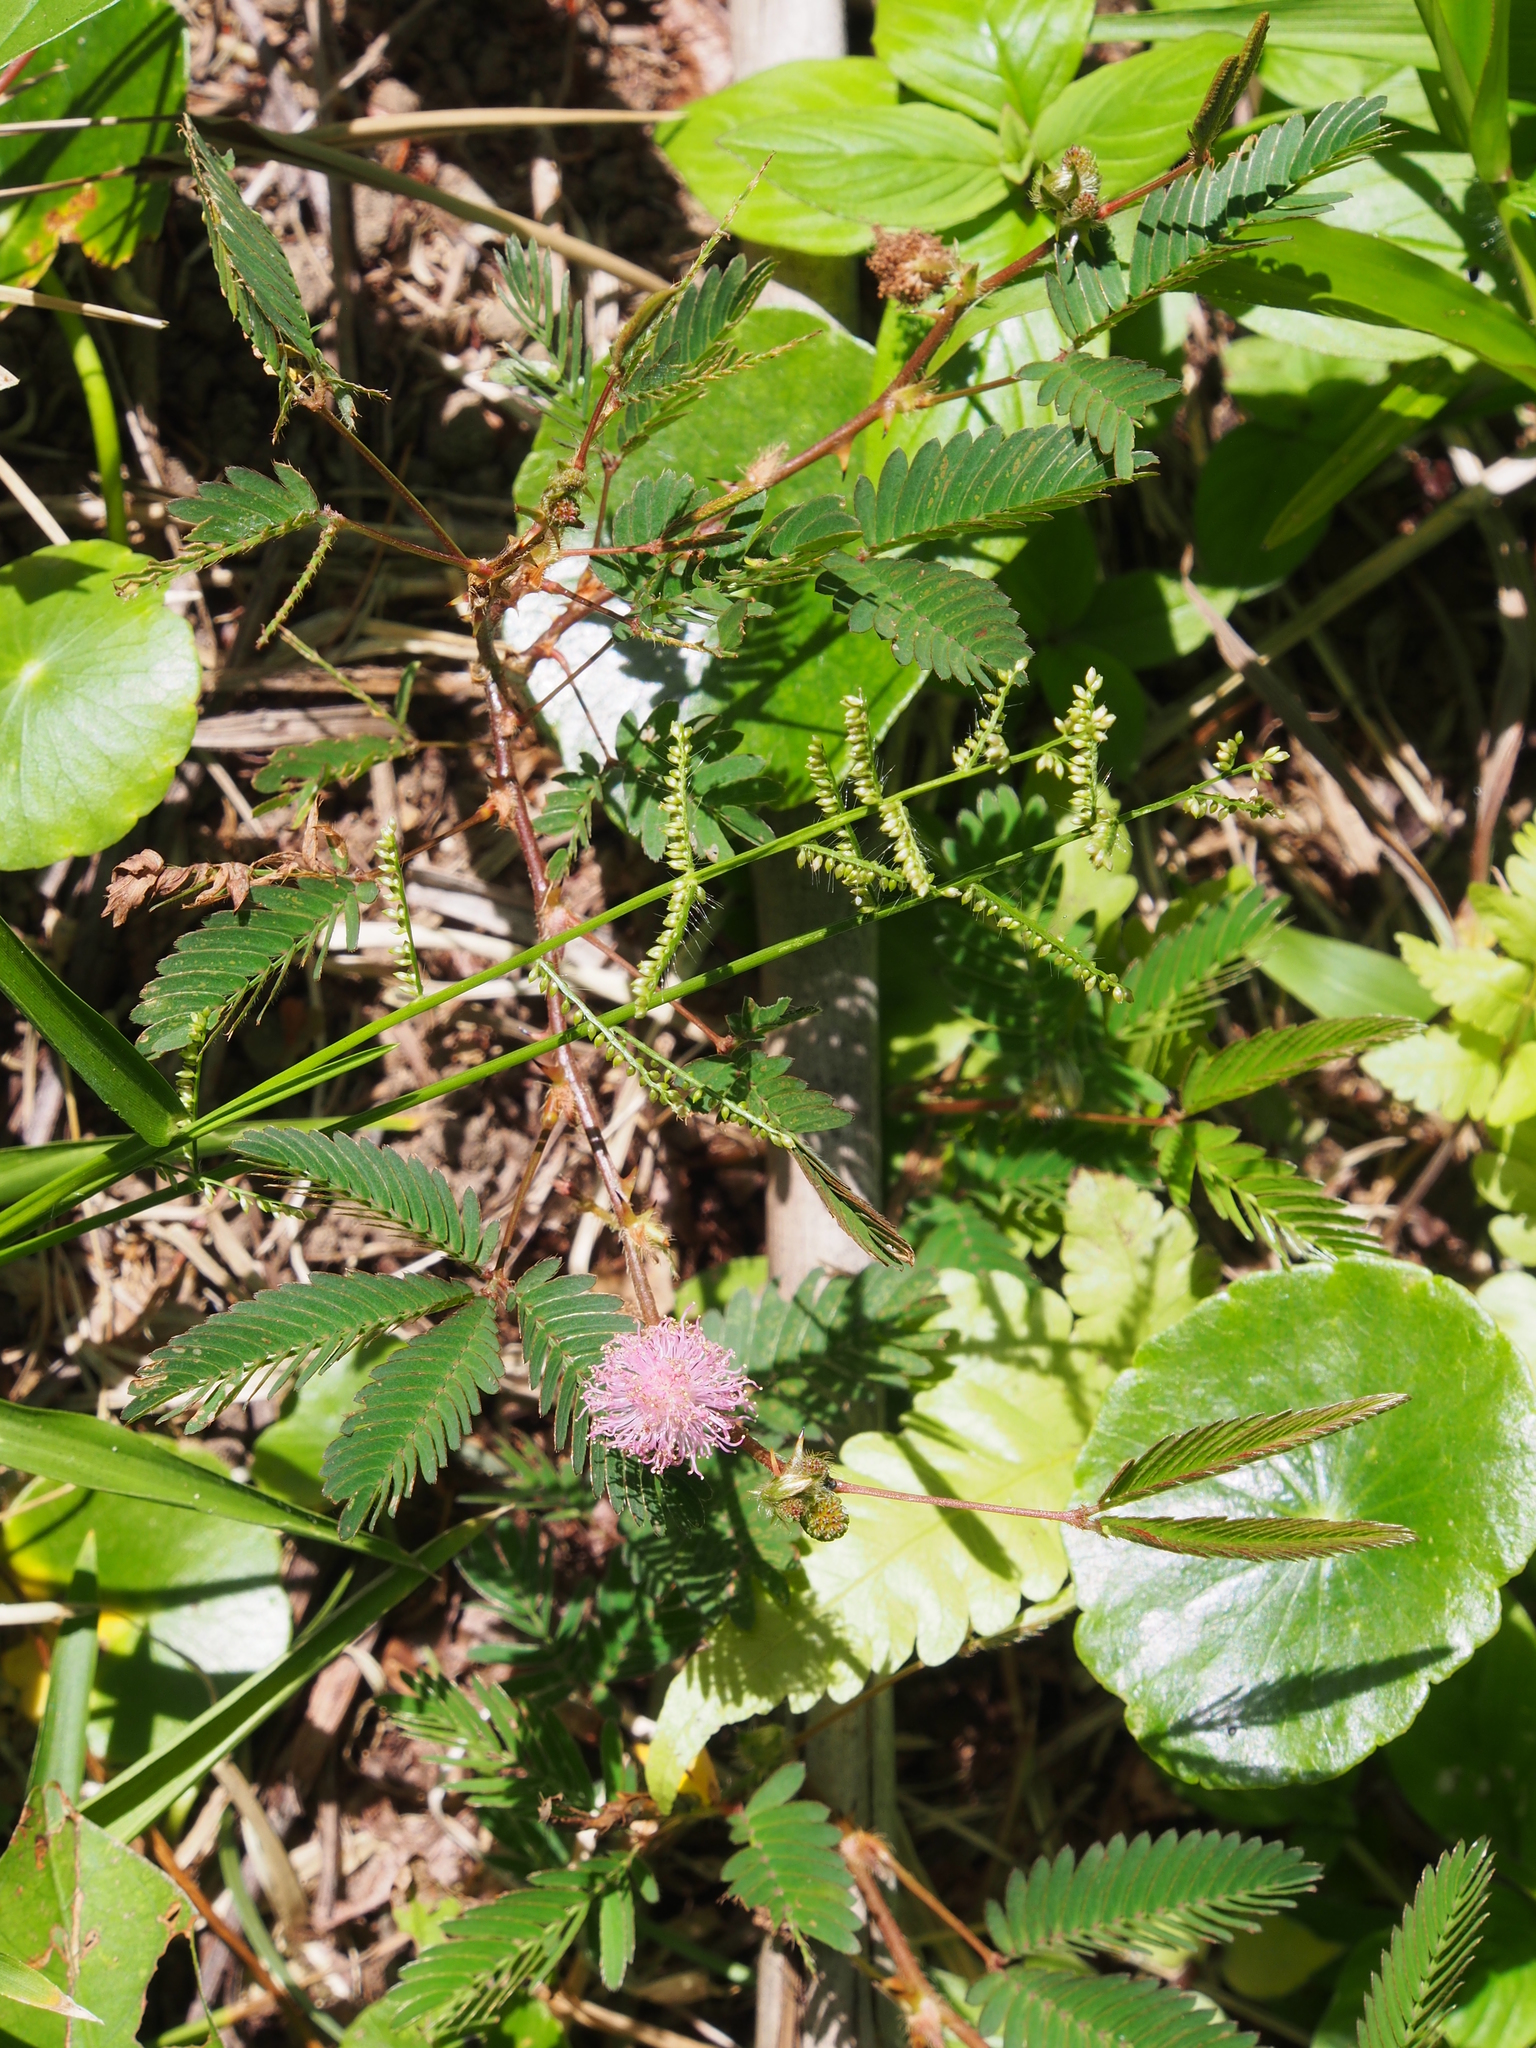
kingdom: Plantae
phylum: Tracheophyta
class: Magnoliopsida
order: Fabales
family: Fabaceae
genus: Mimosa
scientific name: Mimosa pudica
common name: Sensitive plant
